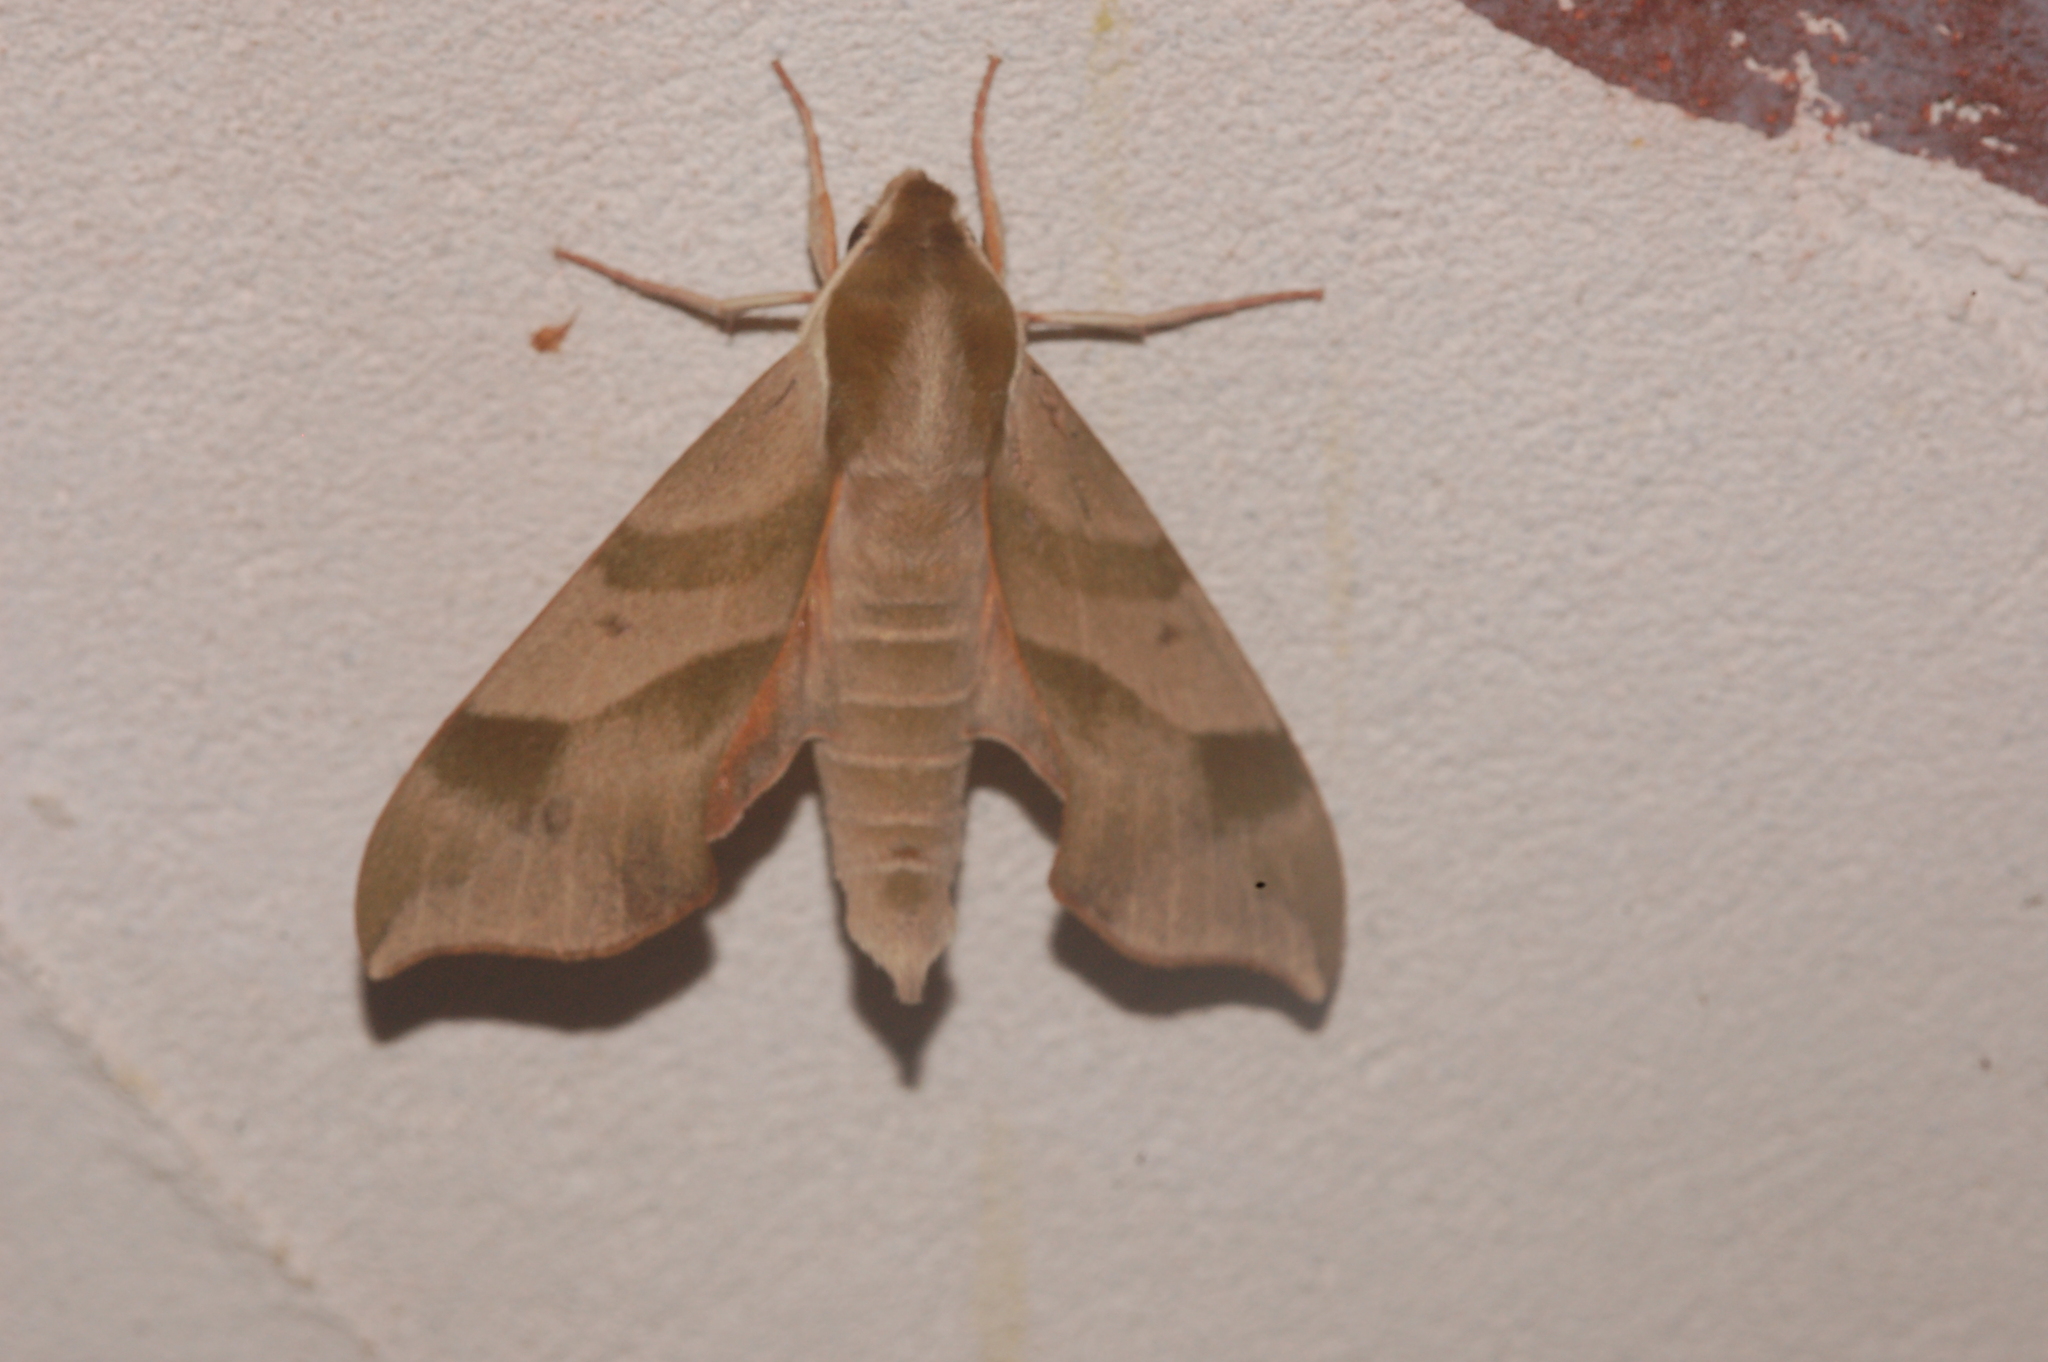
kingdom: Animalia
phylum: Arthropoda
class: Insecta
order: Lepidoptera
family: Sphingidae
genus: Darapsa
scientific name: Darapsa myron
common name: Hog sphinx
